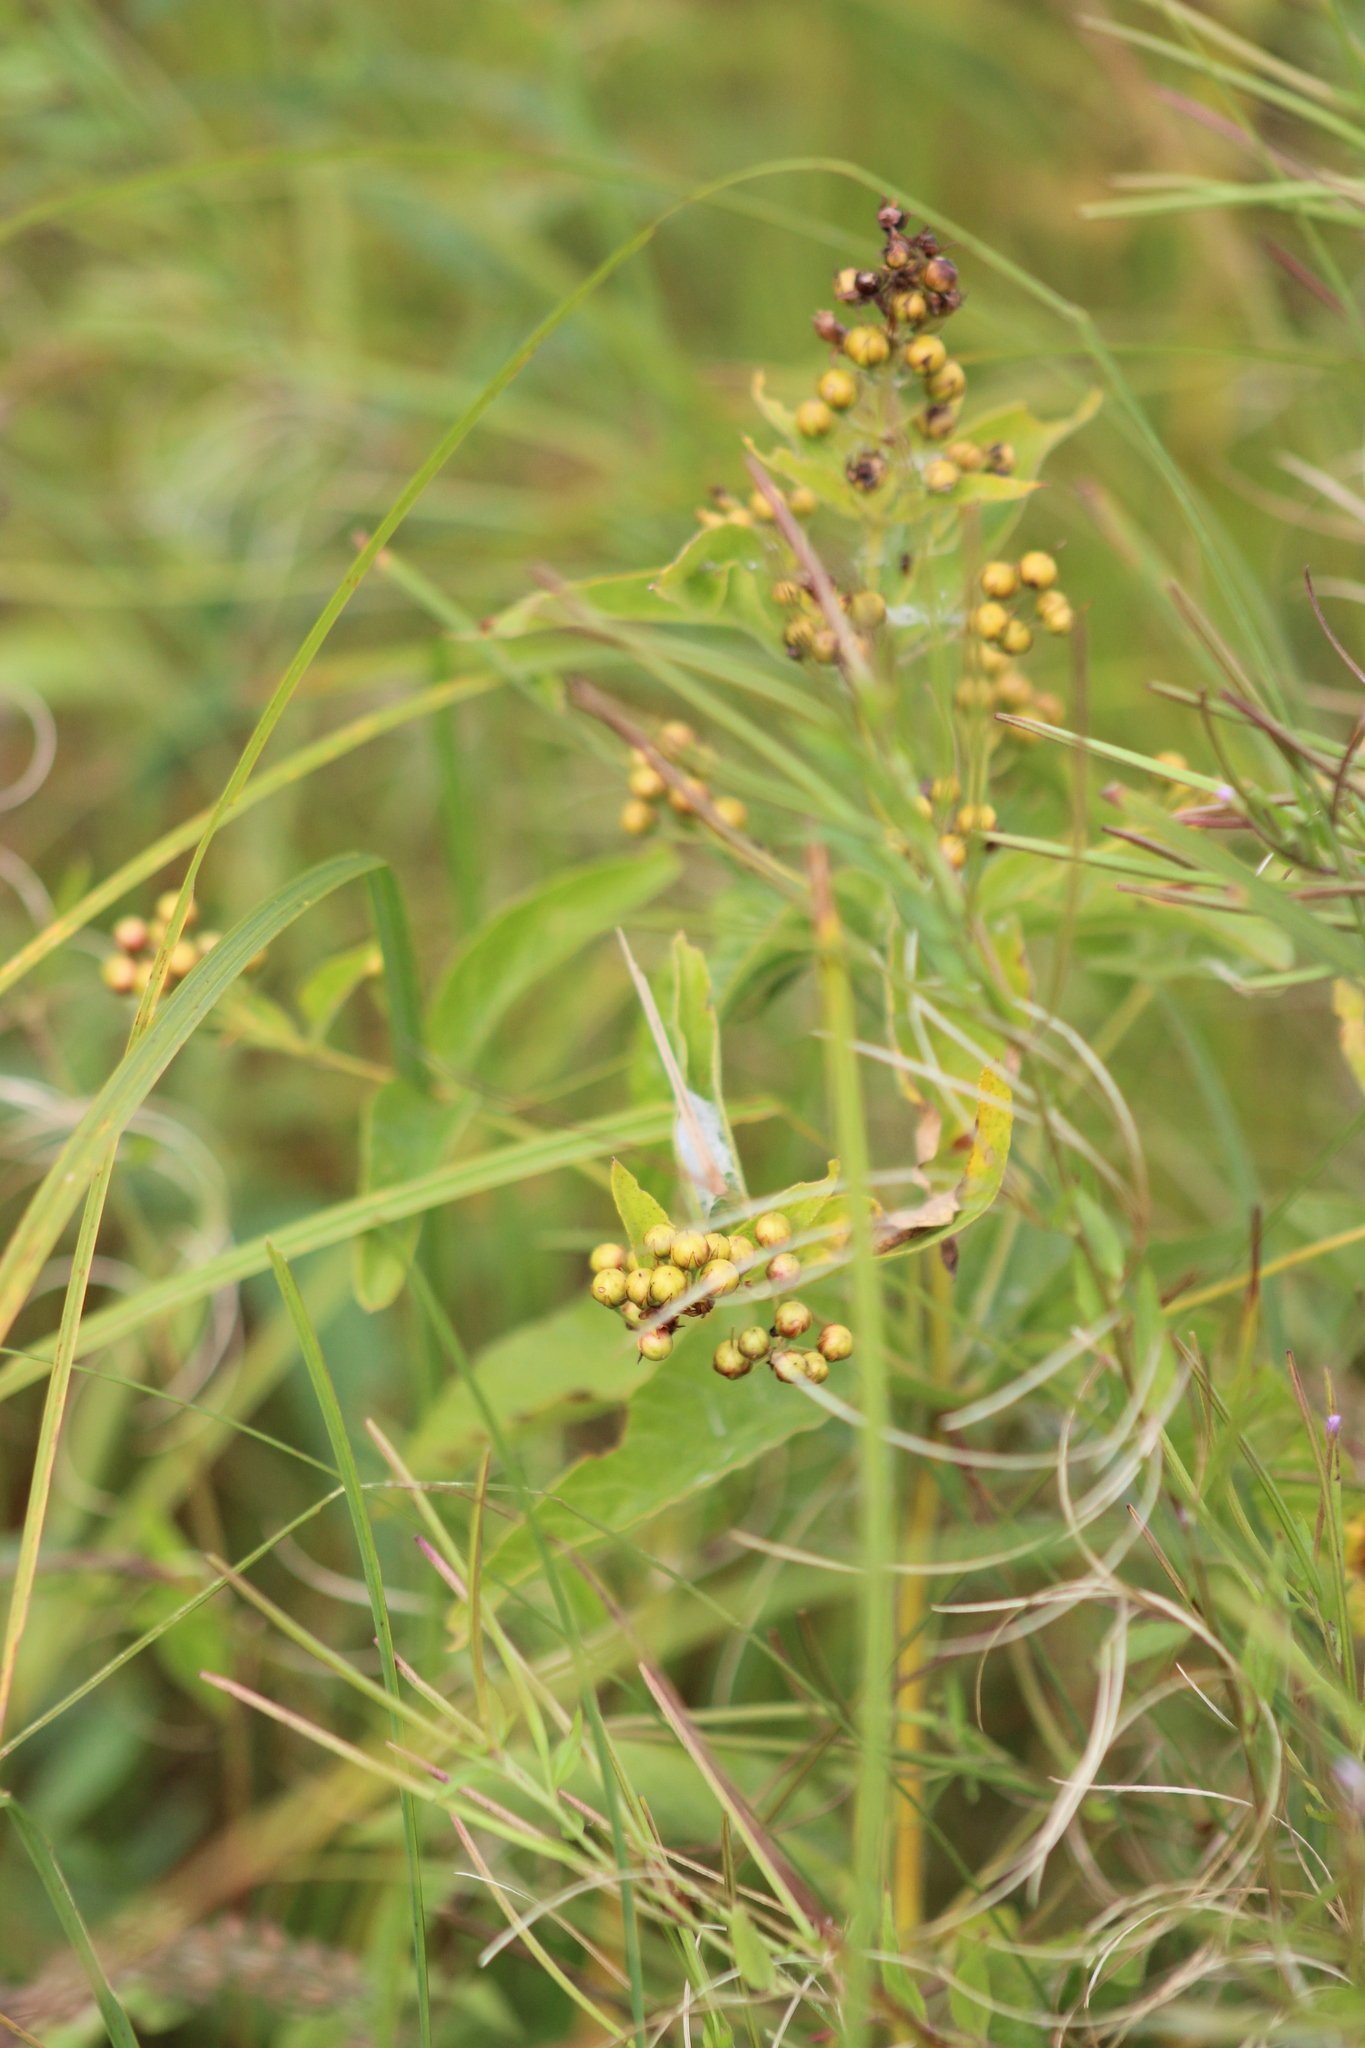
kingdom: Plantae
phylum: Tracheophyta
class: Magnoliopsida
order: Ericales
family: Primulaceae
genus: Lysimachia
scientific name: Lysimachia vulgaris
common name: Yellow loosestrife
